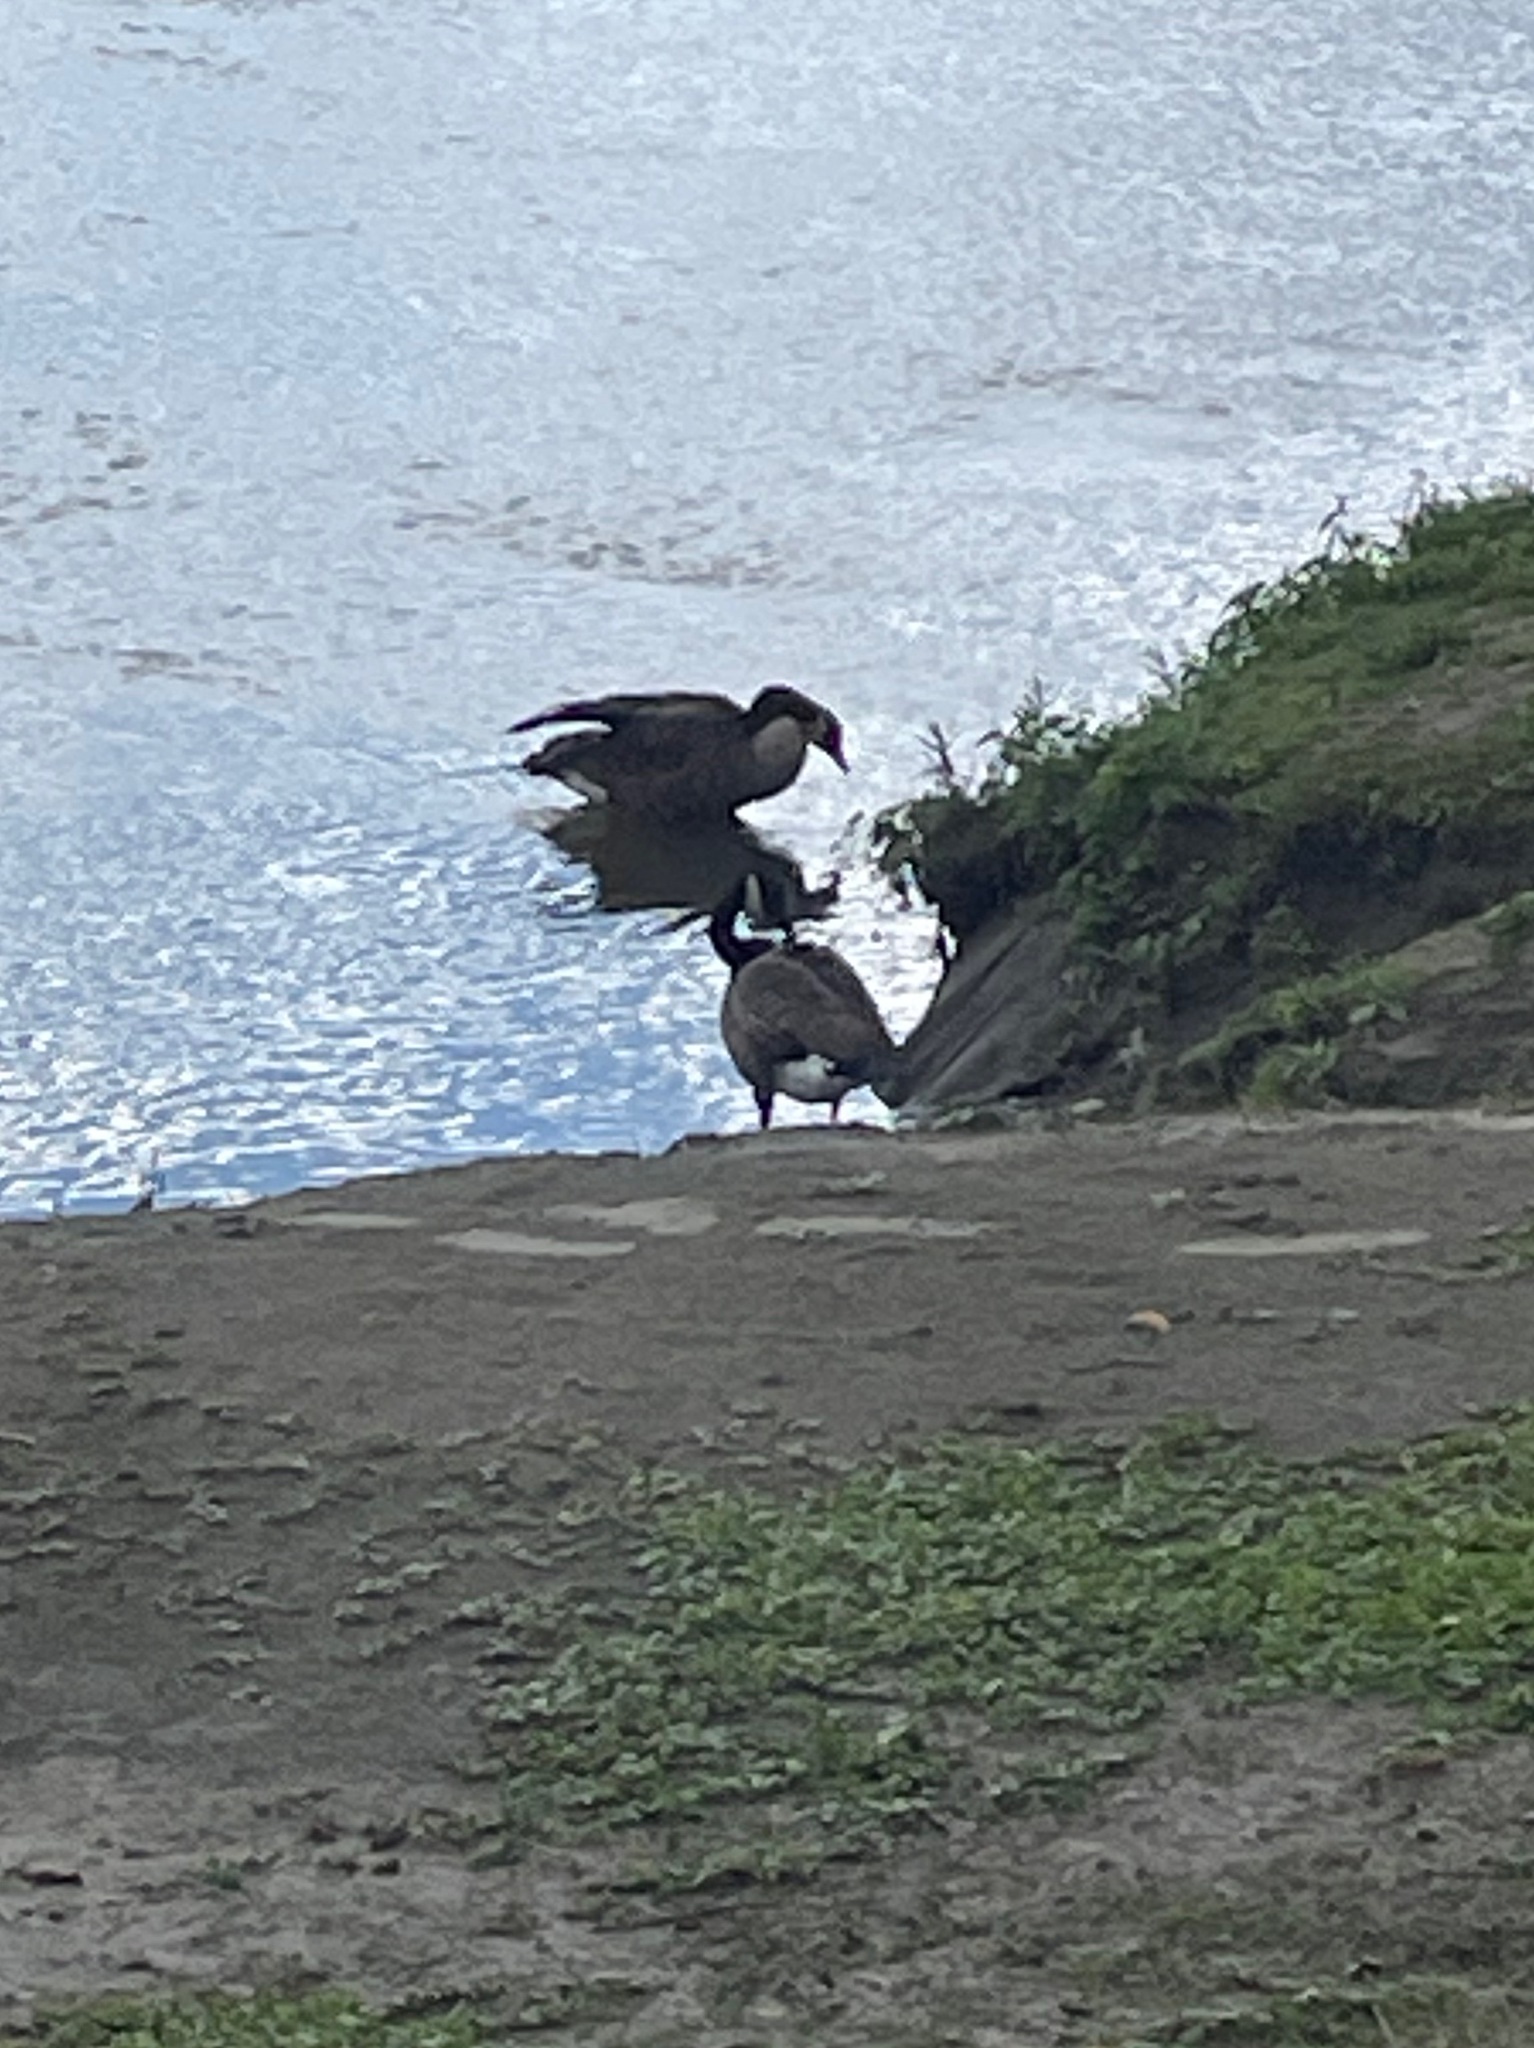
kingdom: Animalia
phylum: Chordata
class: Aves
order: Anseriformes
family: Anatidae
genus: Branta
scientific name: Branta canadensis
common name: Canada goose
